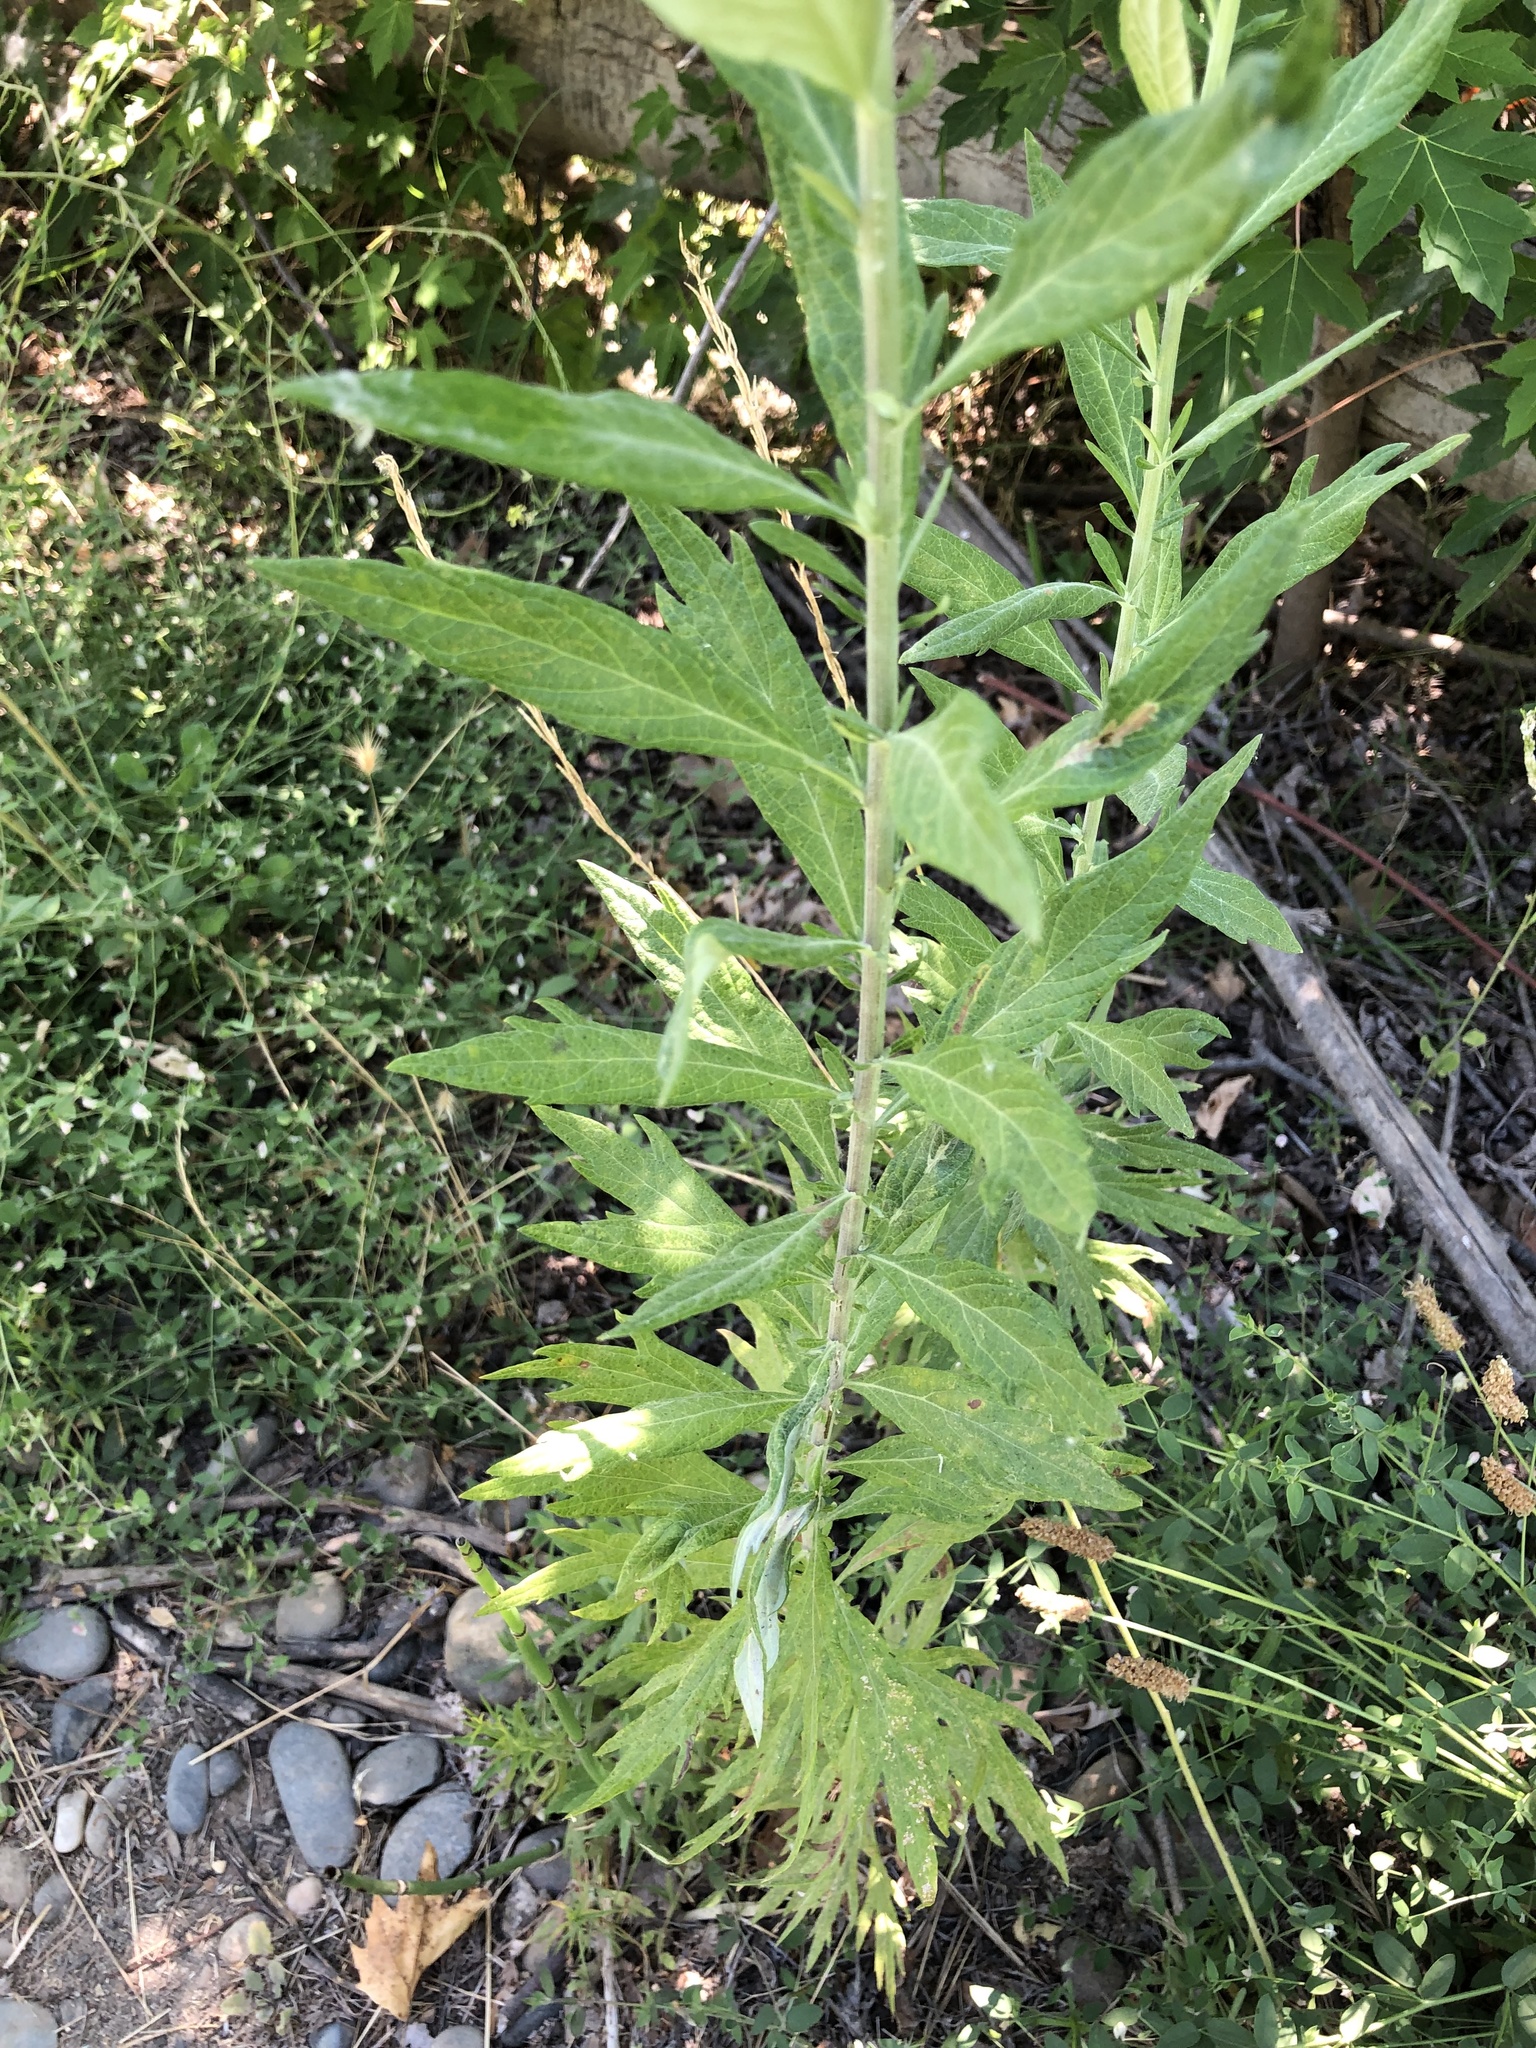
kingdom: Plantae
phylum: Tracheophyta
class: Magnoliopsida
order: Asterales
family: Asteraceae
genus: Artemisia
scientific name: Artemisia douglasiana
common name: Northwest mugwort
